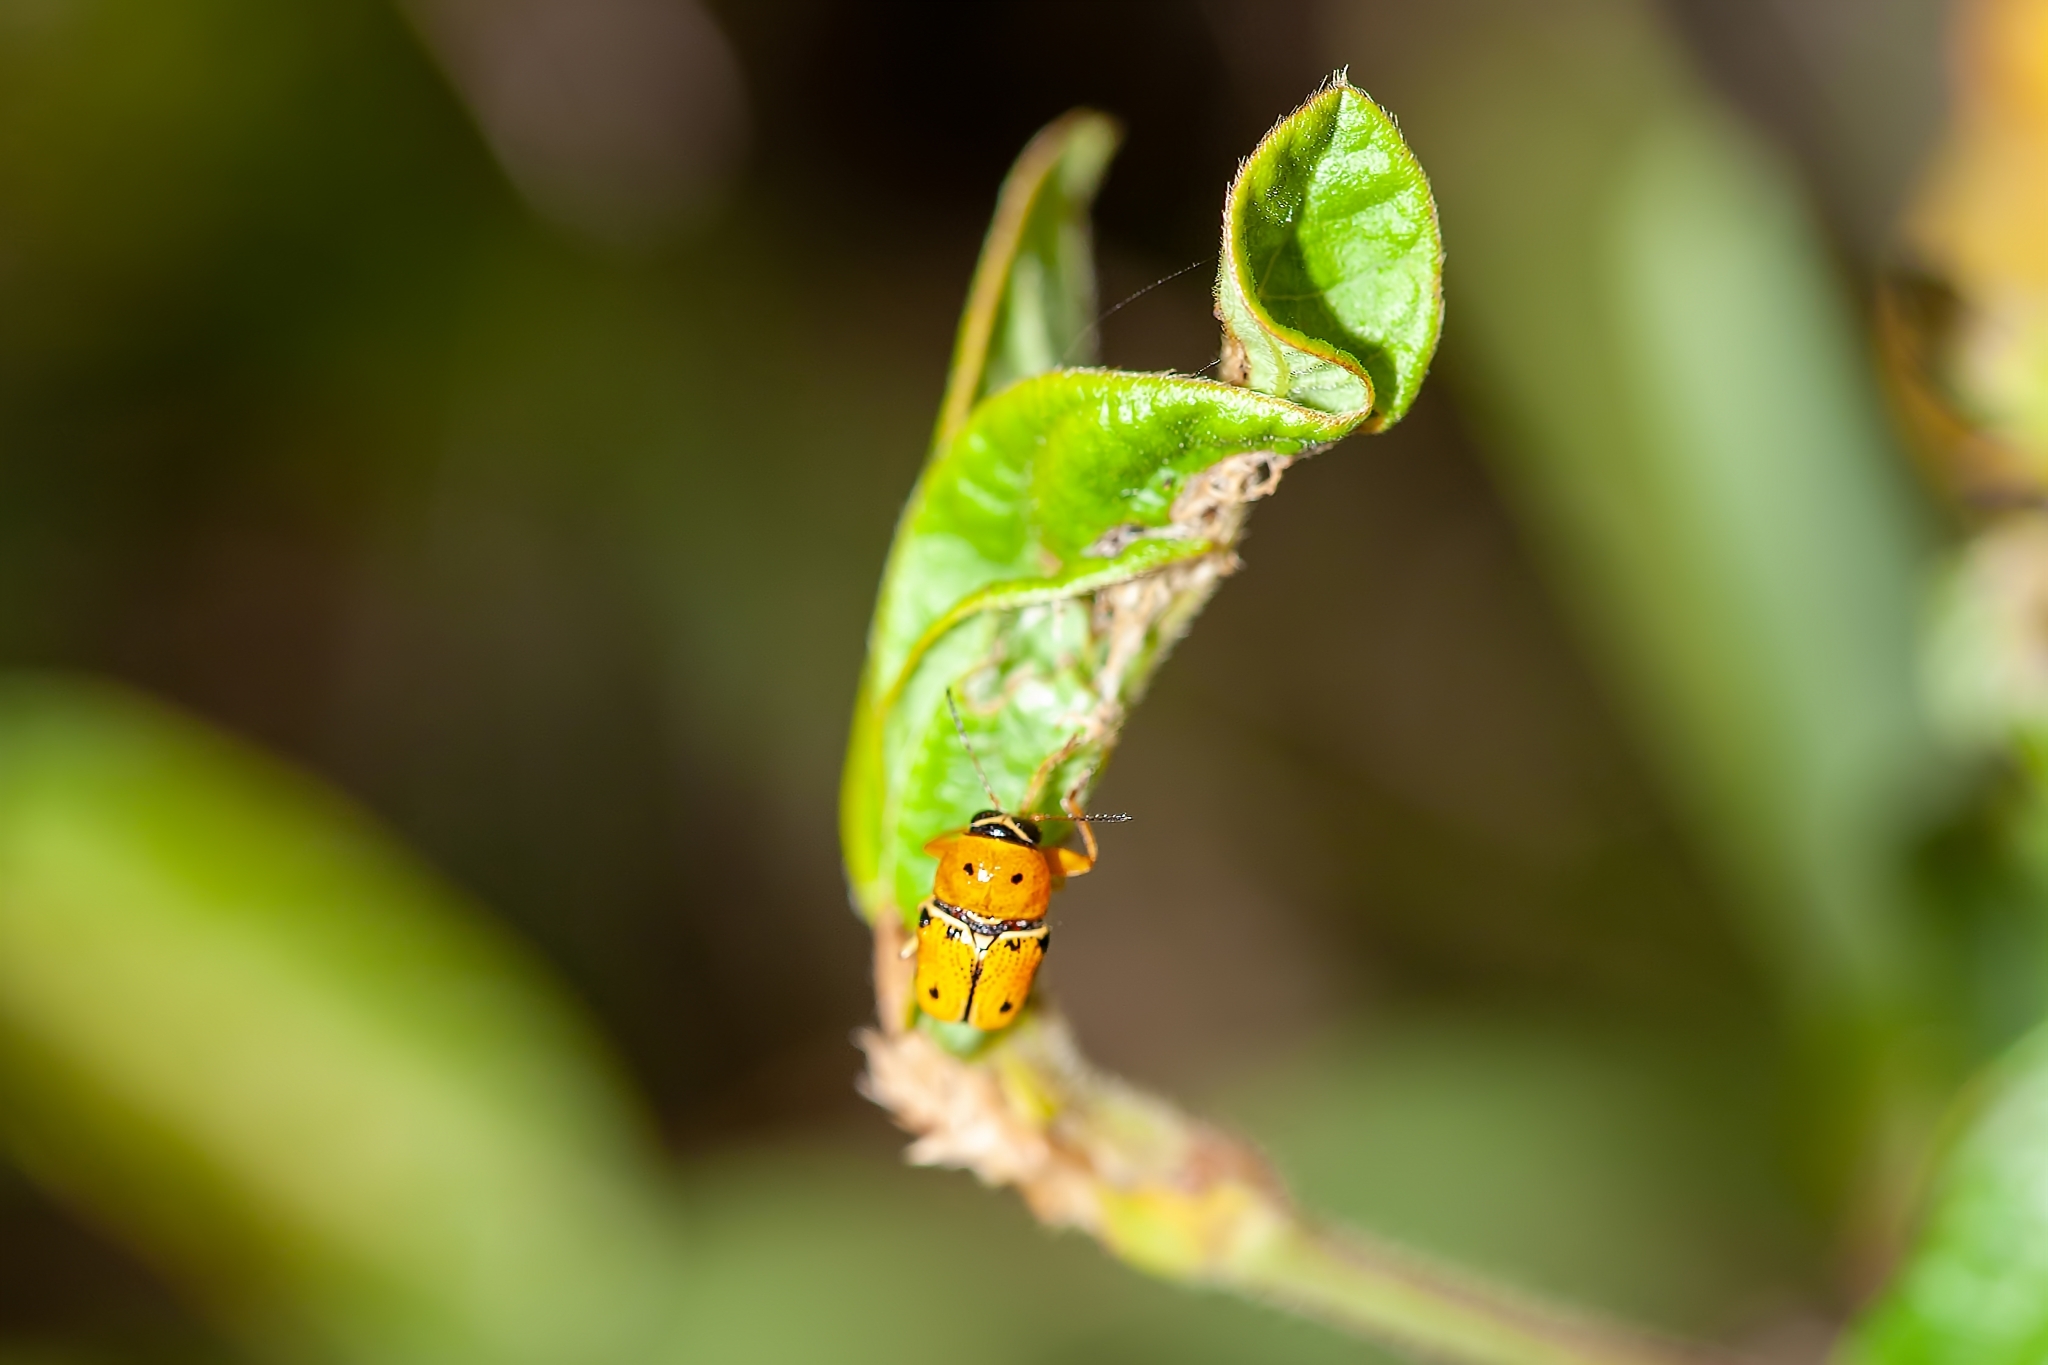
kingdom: Animalia
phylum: Arthropoda
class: Insecta
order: Coleoptera
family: Chrysomelidae
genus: Griburius
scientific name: Griburius larvatus
